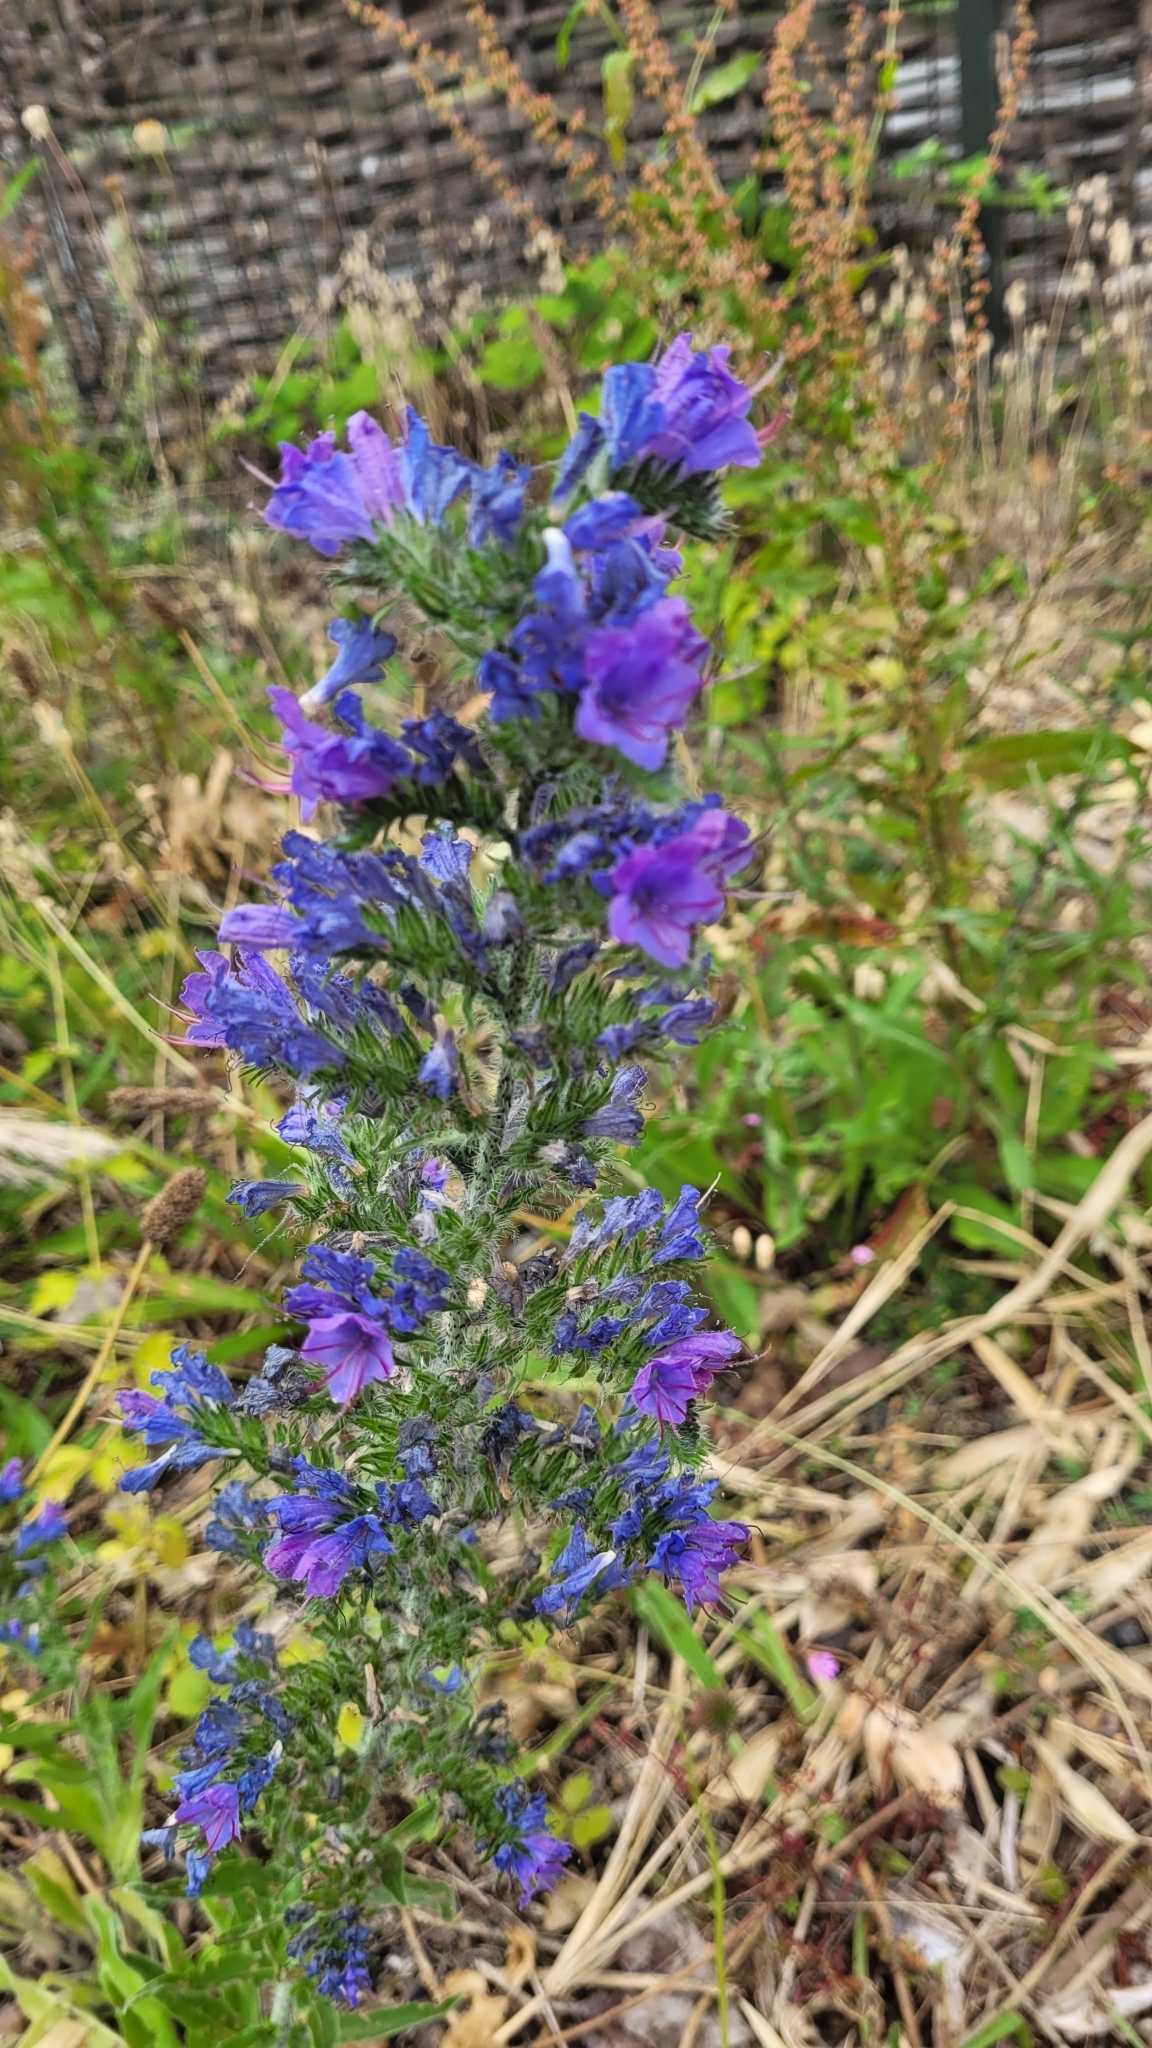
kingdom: Plantae
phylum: Tracheophyta
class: Magnoliopsida
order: Boraginales
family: Boraginaceae
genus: Echium
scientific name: Echium vulgare
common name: Common viper's bugloss
